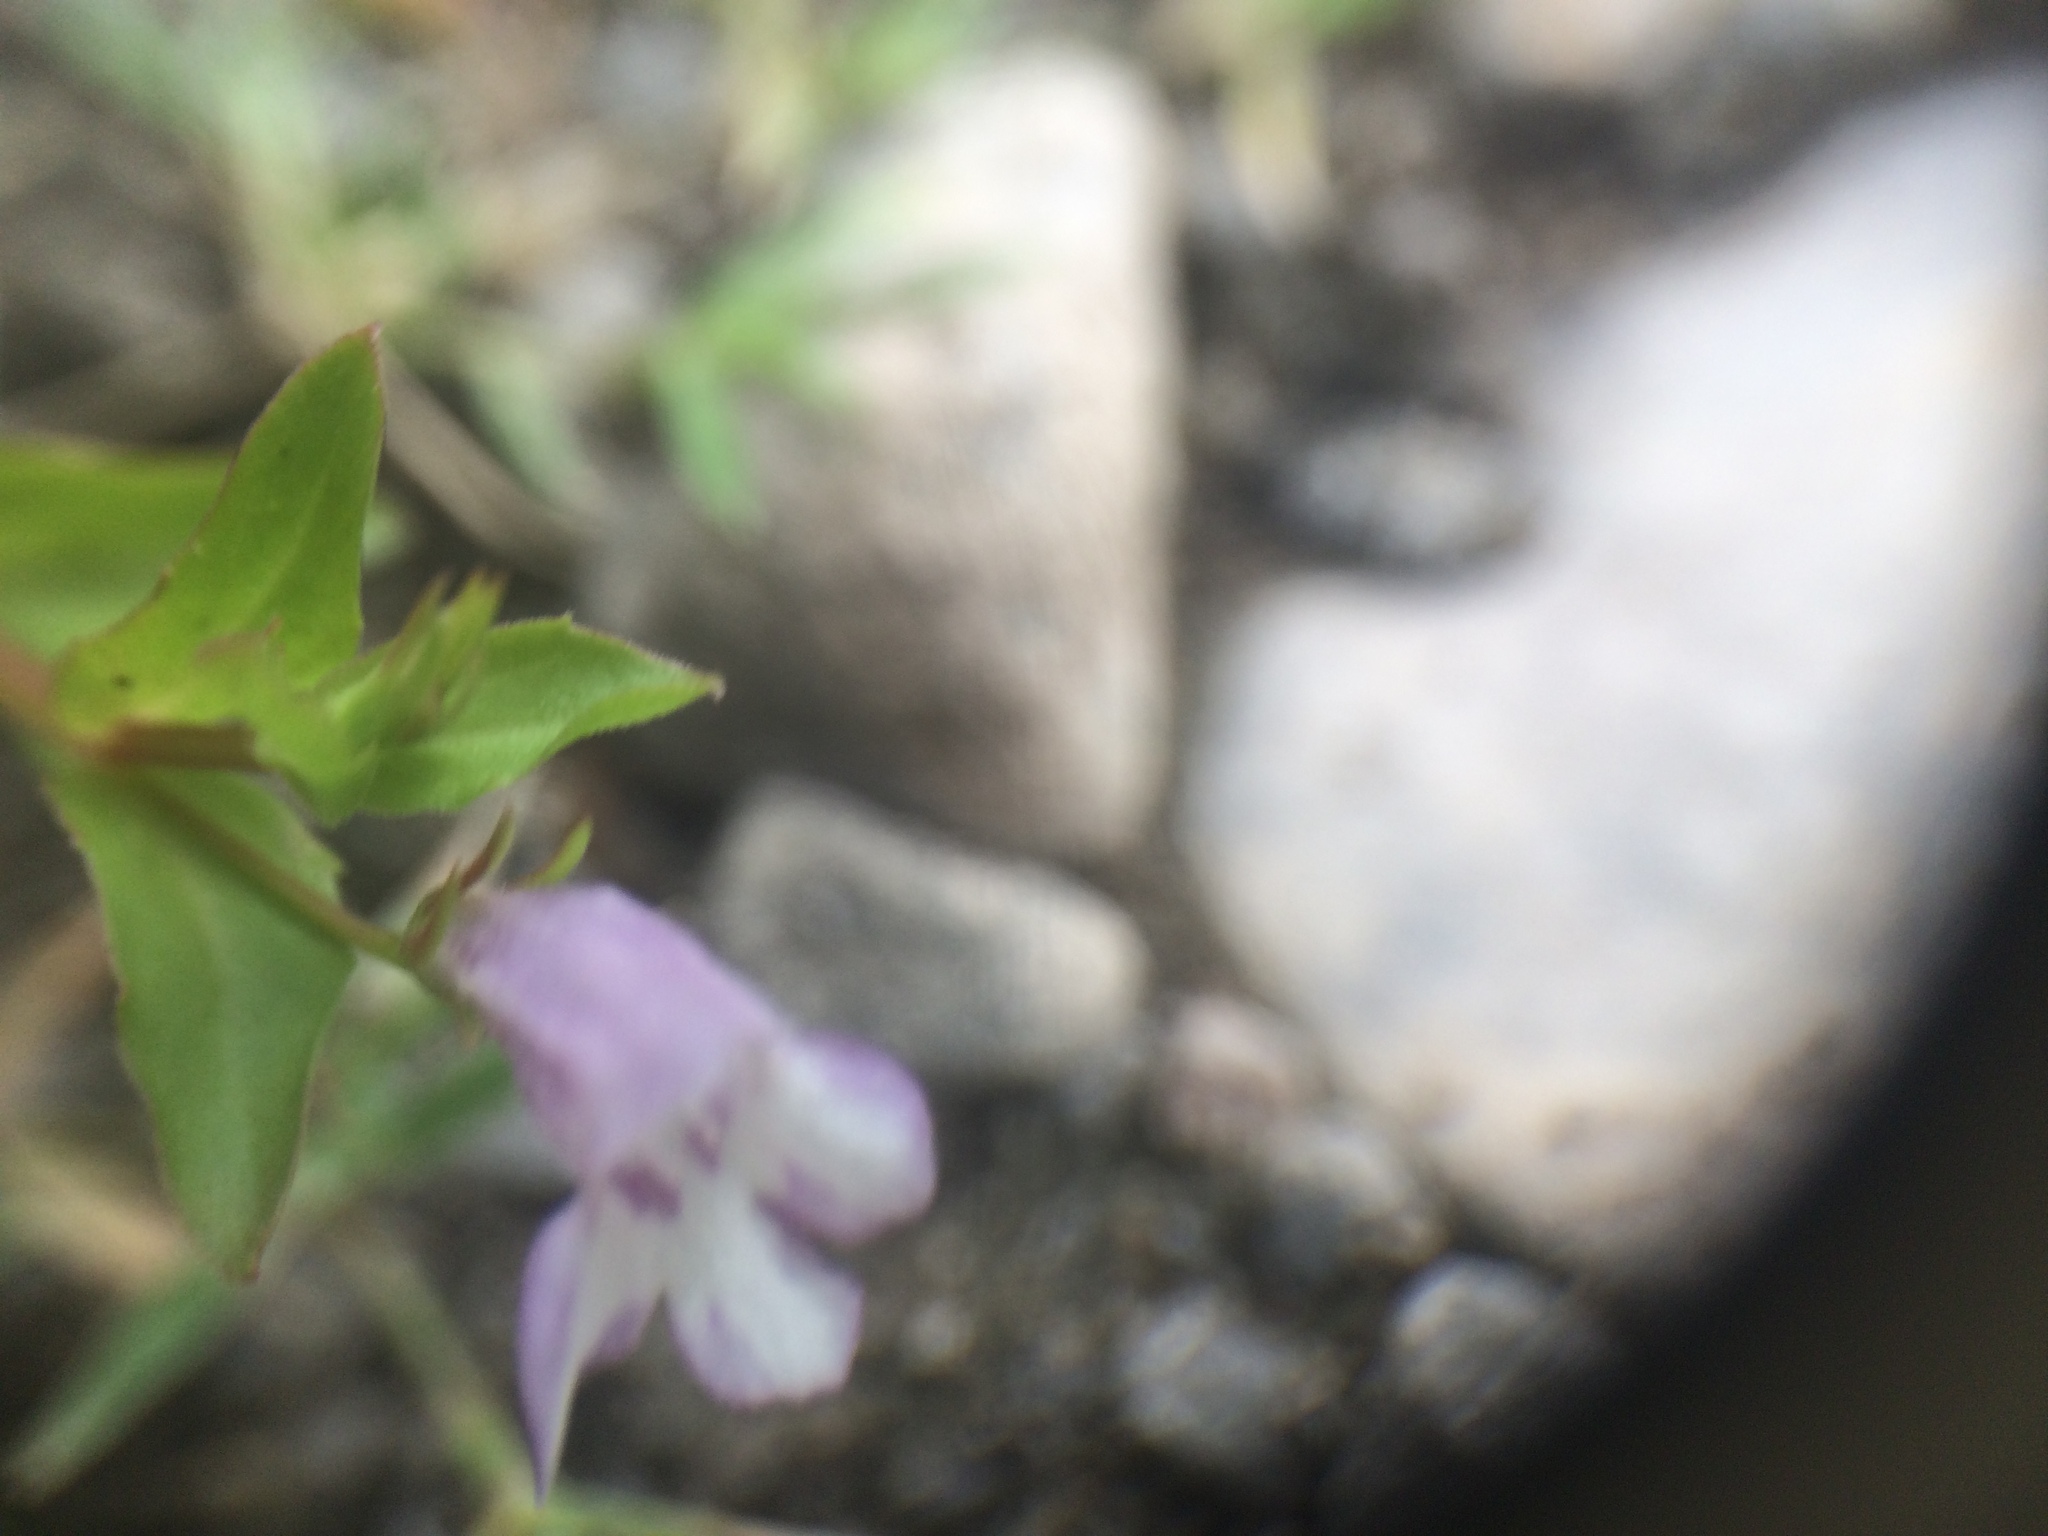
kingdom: Plantae
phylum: Tracheophyta
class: Magnoliopsida
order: Lamiales
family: Linderniaceae
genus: Lindernia
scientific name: Lindernia dubia
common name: Annual false pimpernel
